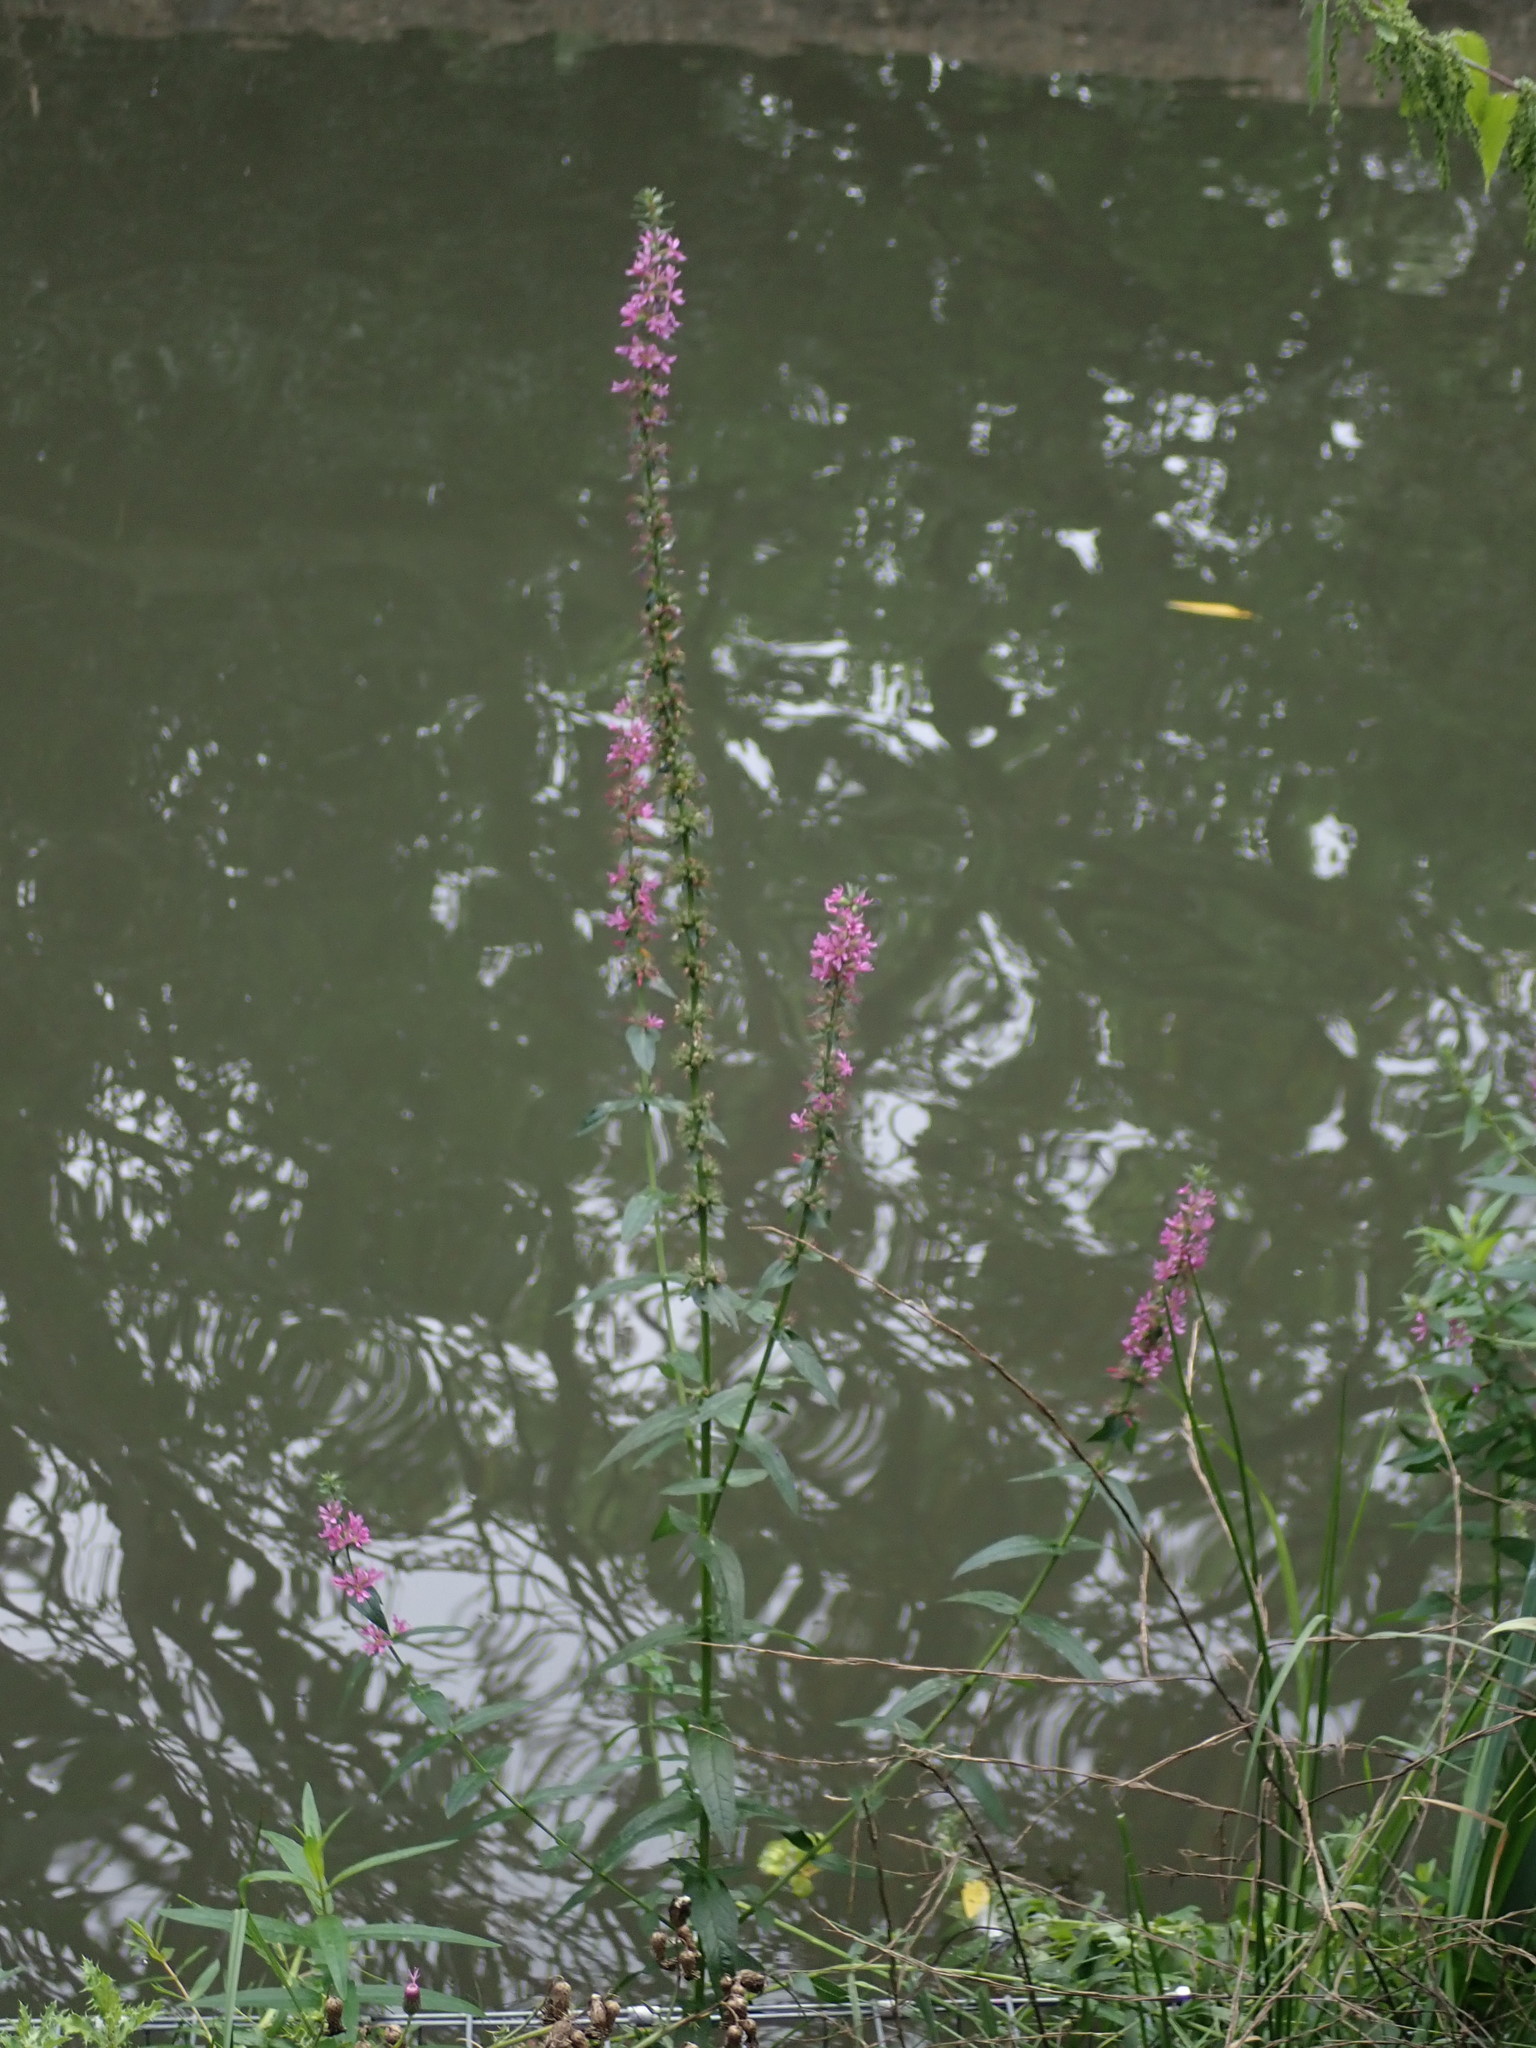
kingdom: Plantae
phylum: Tracheophyta
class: Magnoliopsida
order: Myrtales
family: Lythraceae
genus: Lythrum
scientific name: Lythrum salicaria
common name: Purple loosestrife
